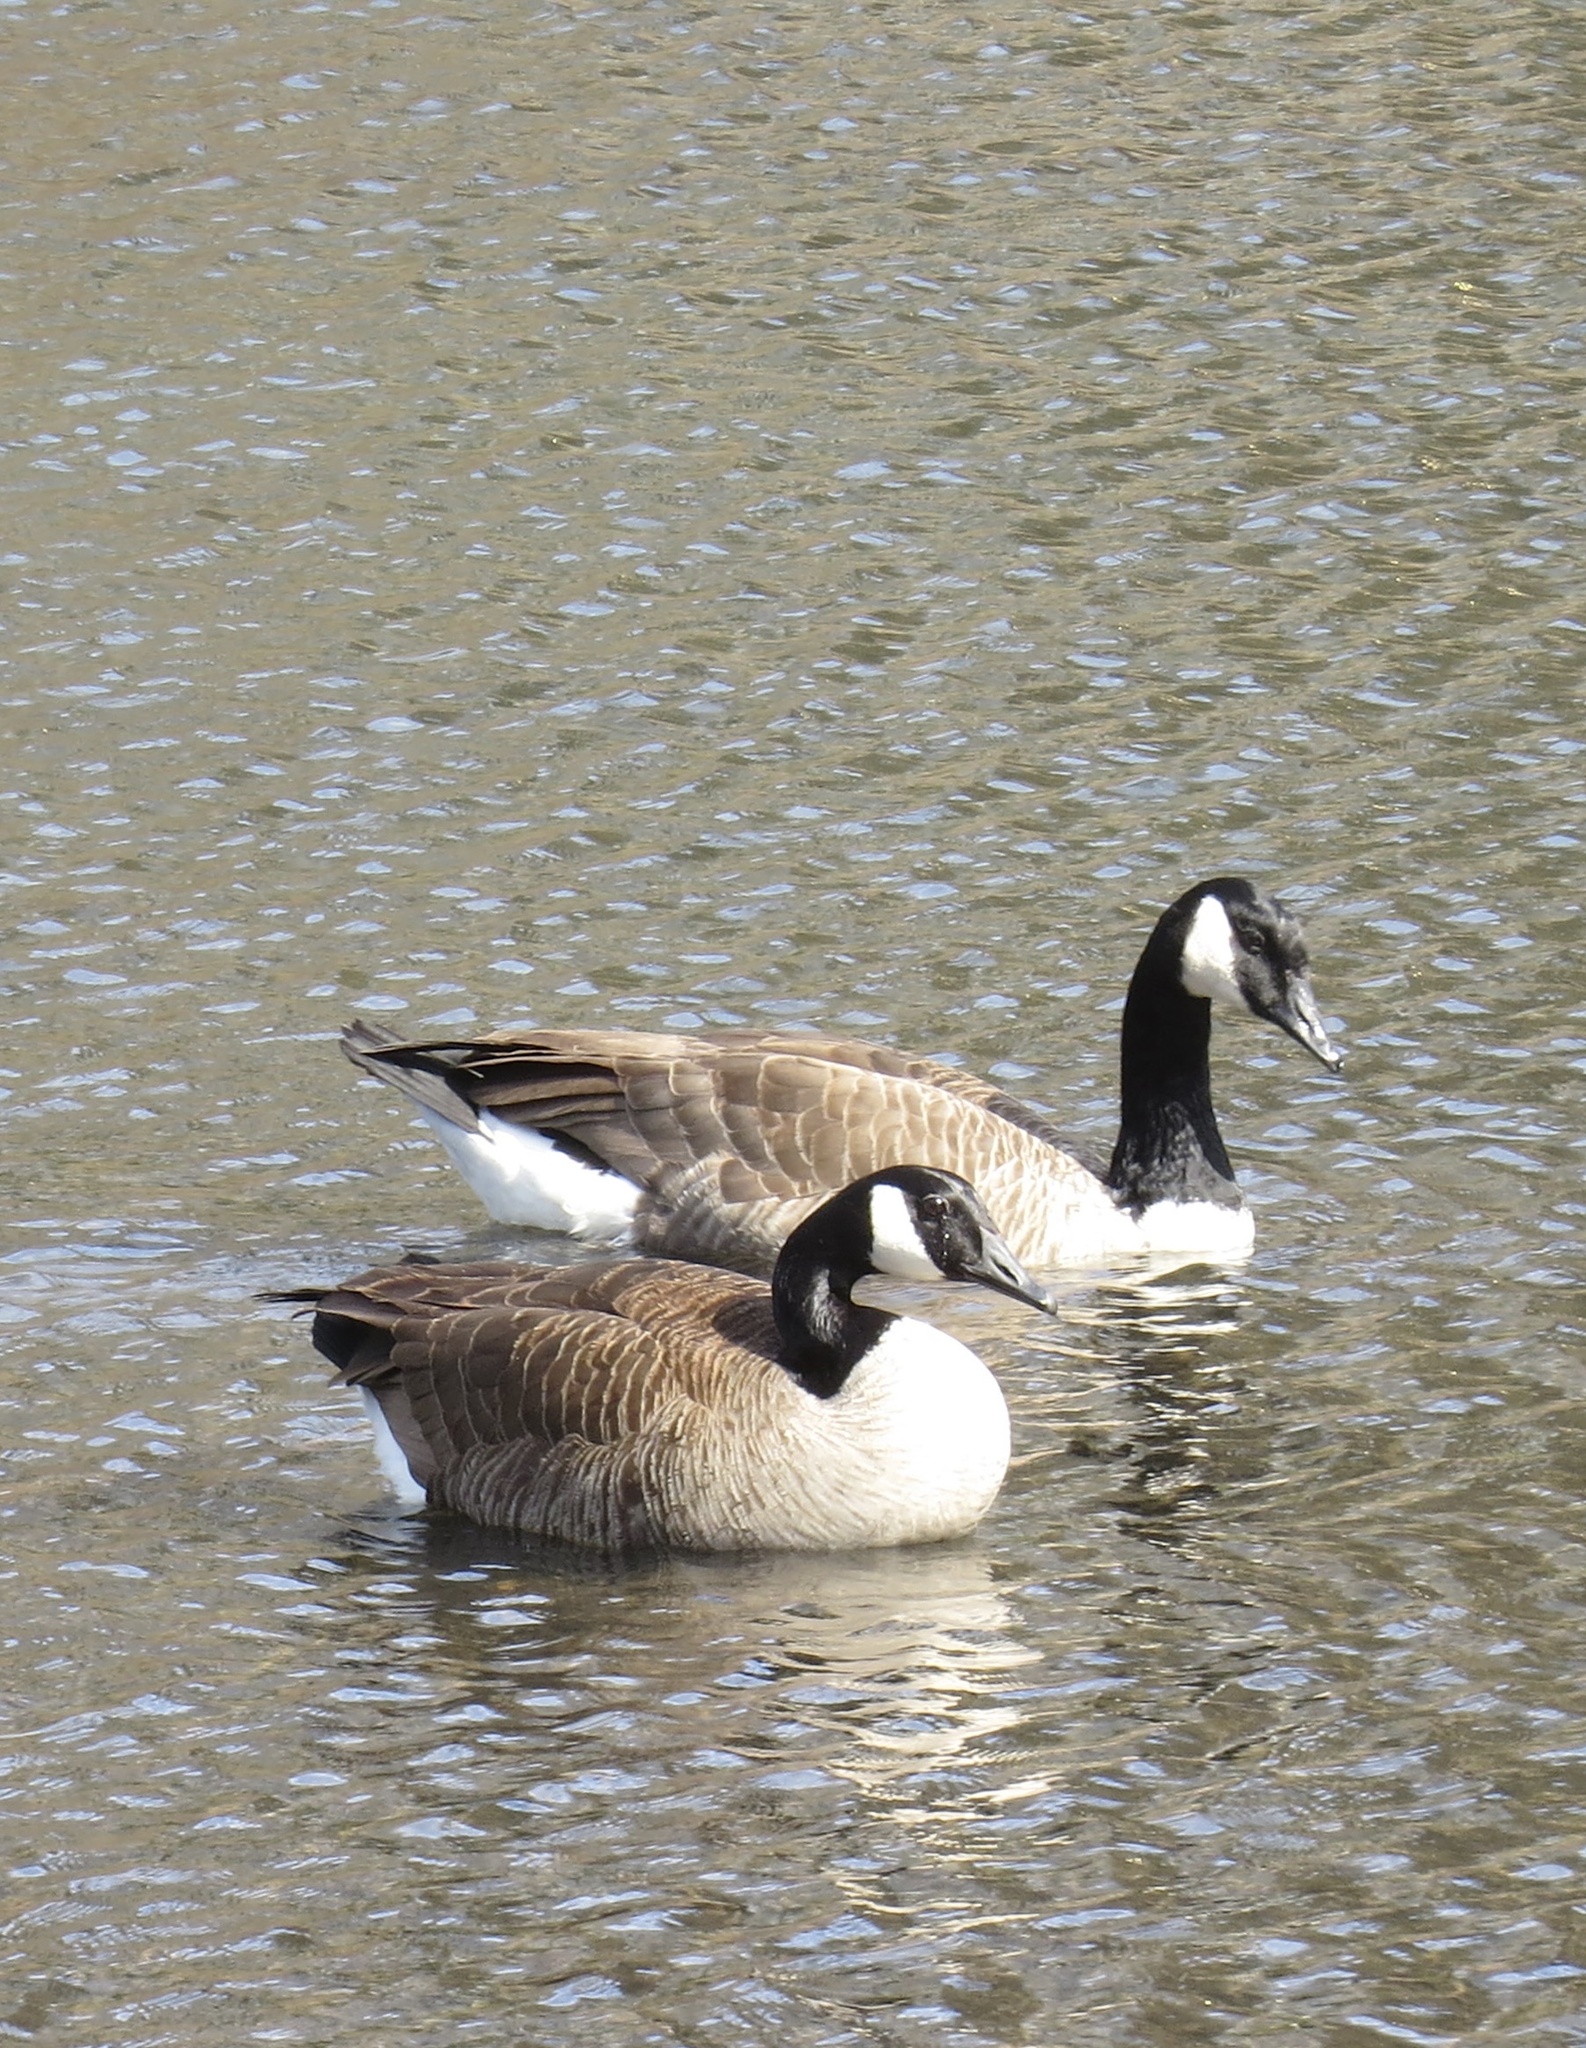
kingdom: Animalia
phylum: Chordata
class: Aves
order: Anseriformes
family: Anatidae
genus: Branta
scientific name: Branta canadensis
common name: Canada goose
